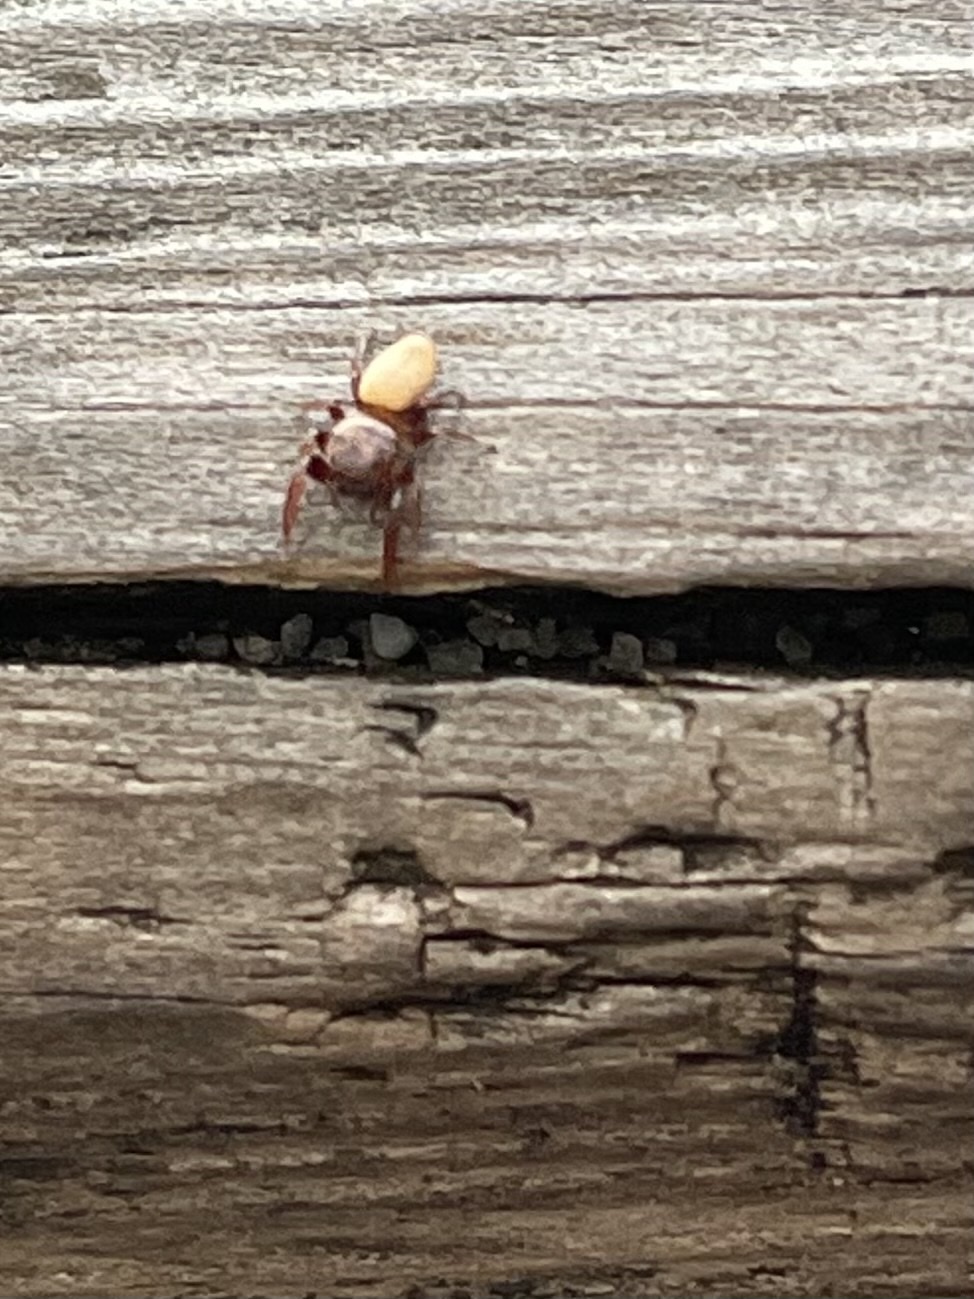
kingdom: Animalia
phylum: Arthropoda
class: Arachnida
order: Araneae
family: Salticidae
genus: Beata
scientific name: Beata wickhami
